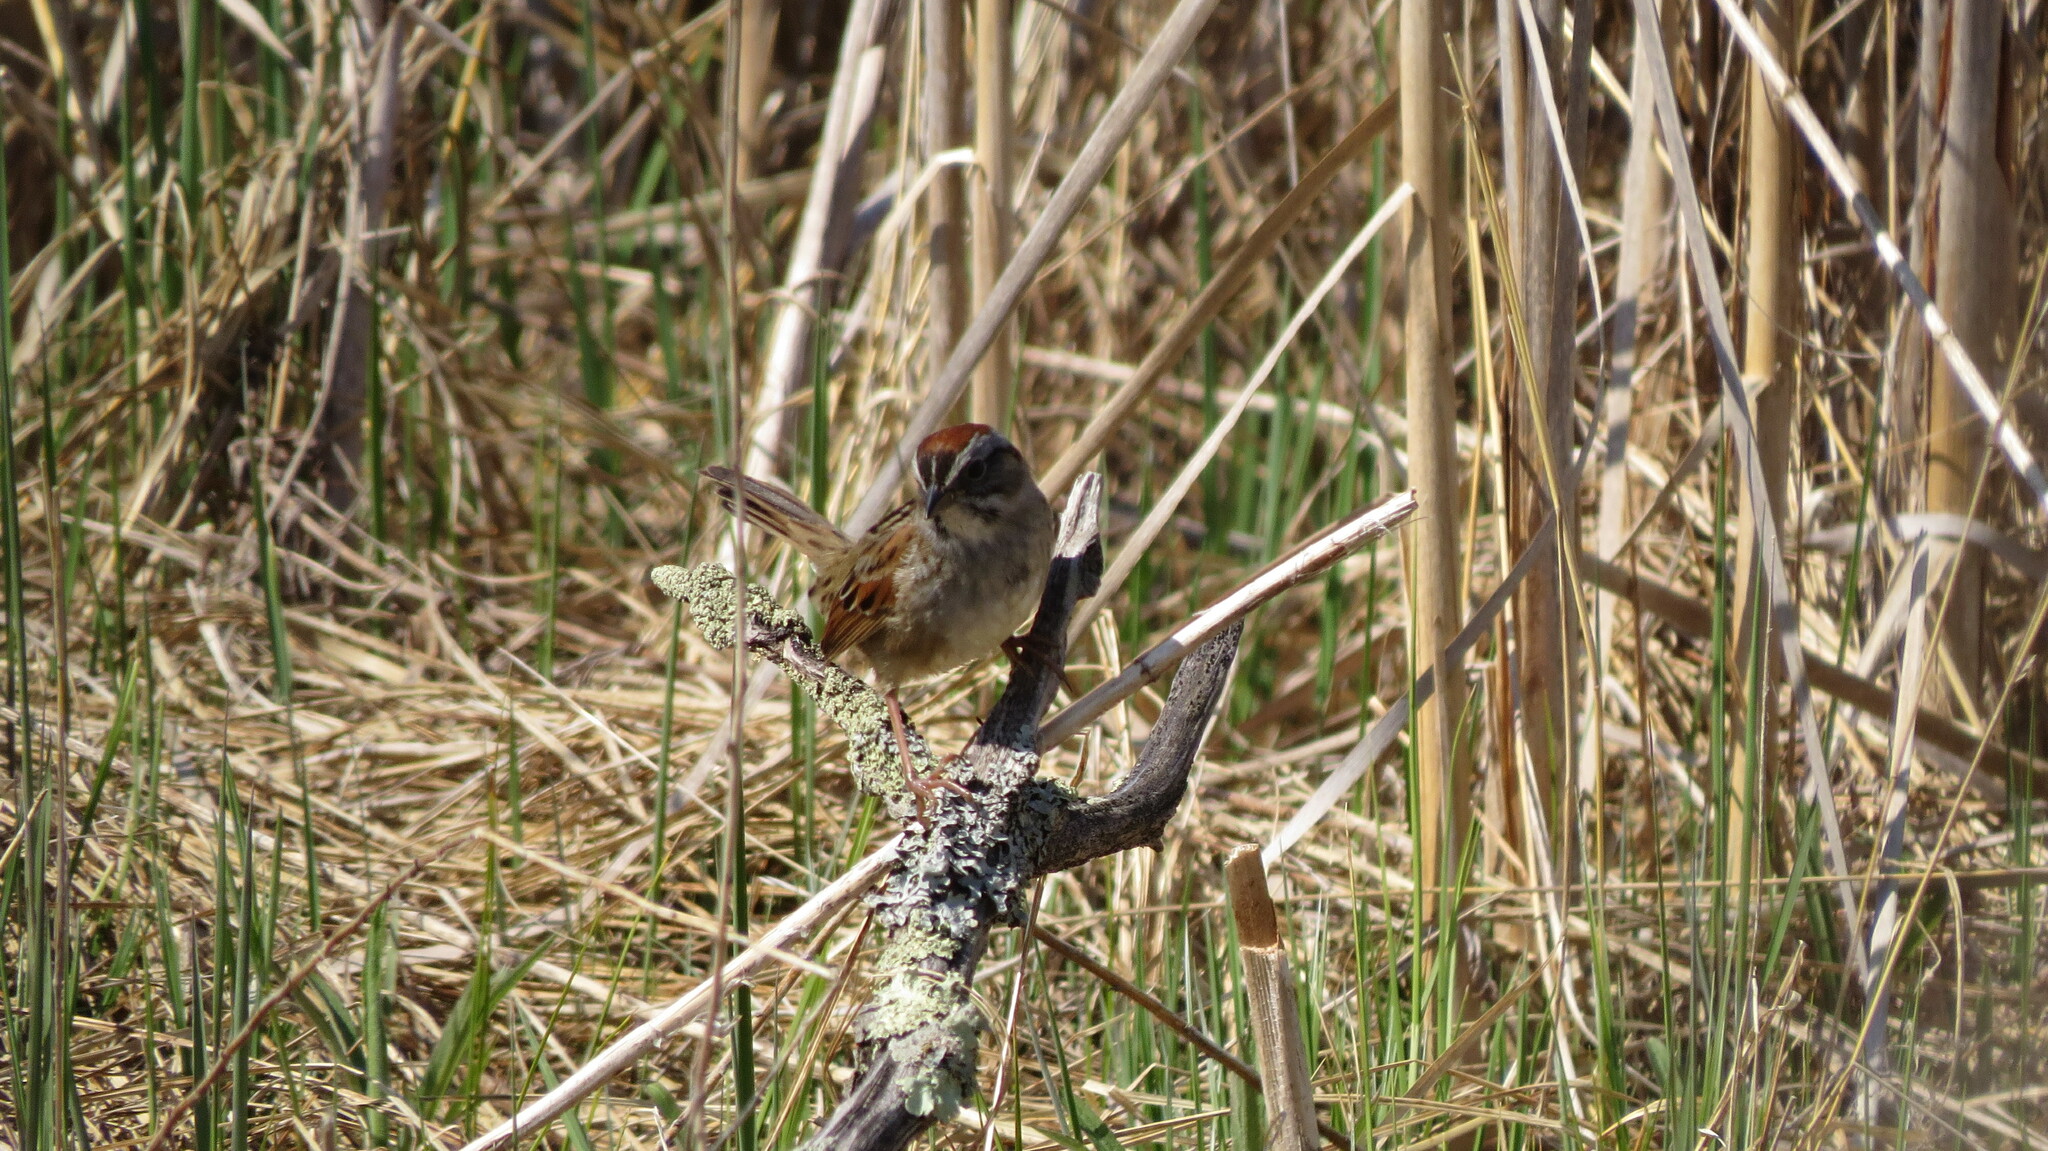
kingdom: Animalia
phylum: Chordata
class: Aves
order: Passeriformes
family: Passerellidae
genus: Melospiza
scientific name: Melospiza georgiana
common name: Swamp sparrow
